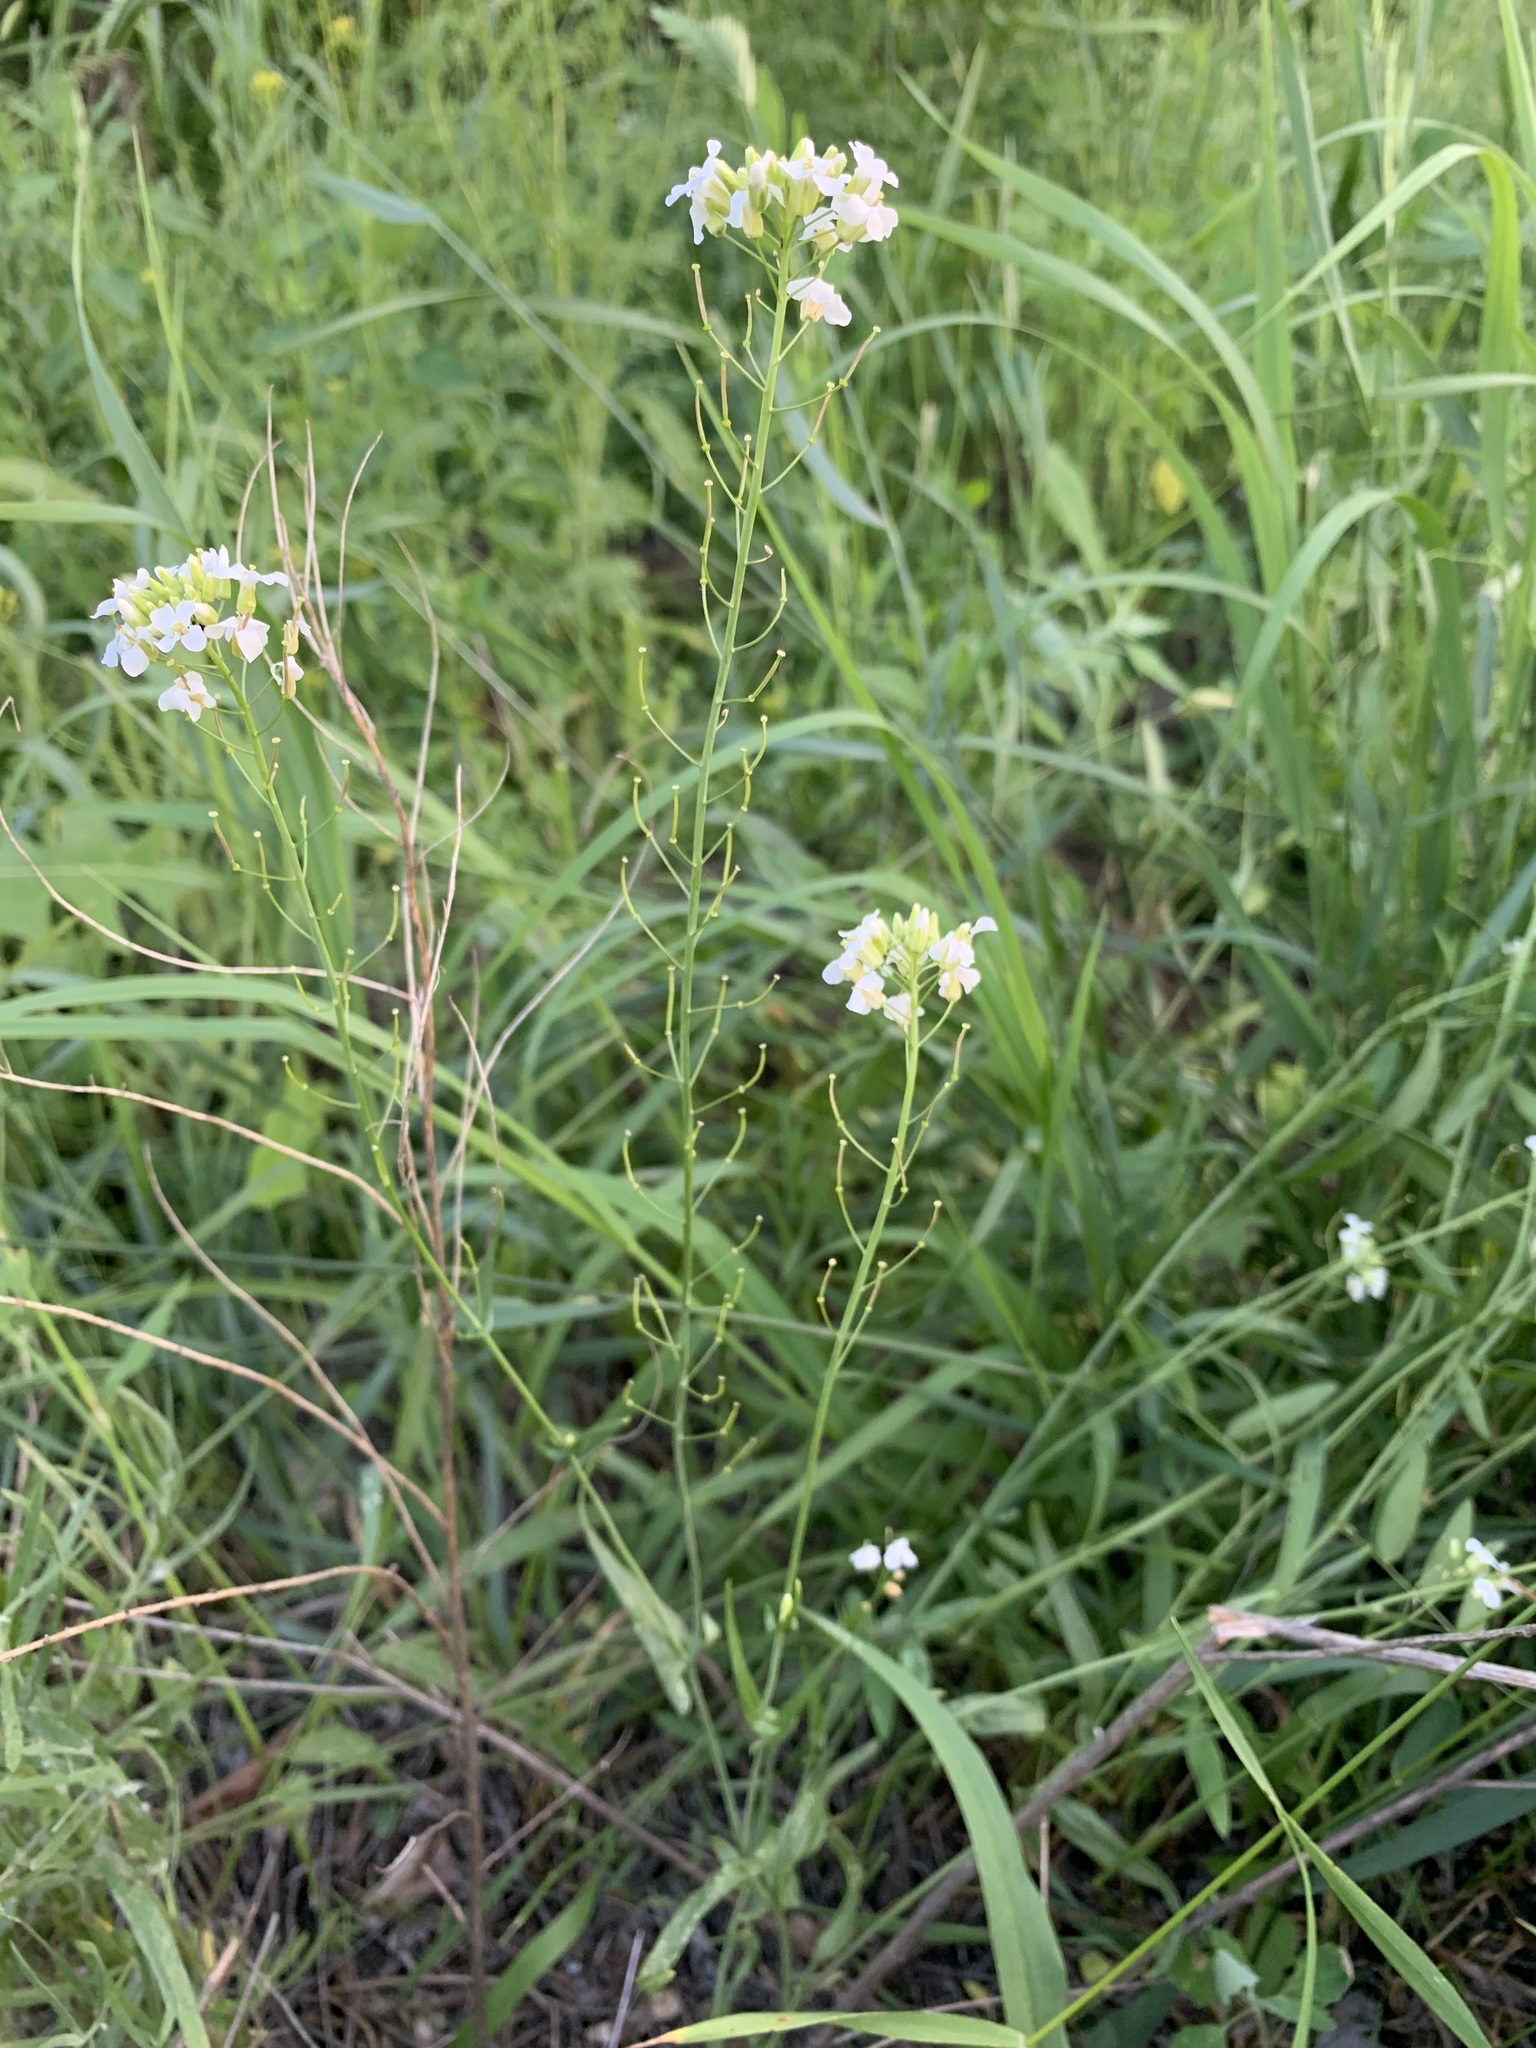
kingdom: Plantae
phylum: Tracheophyta
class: Magnoliopsida
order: Brassicales
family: Brassicaceae
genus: Pseudoarabidopsis
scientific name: Pseudoarabidopsis toxophylla
